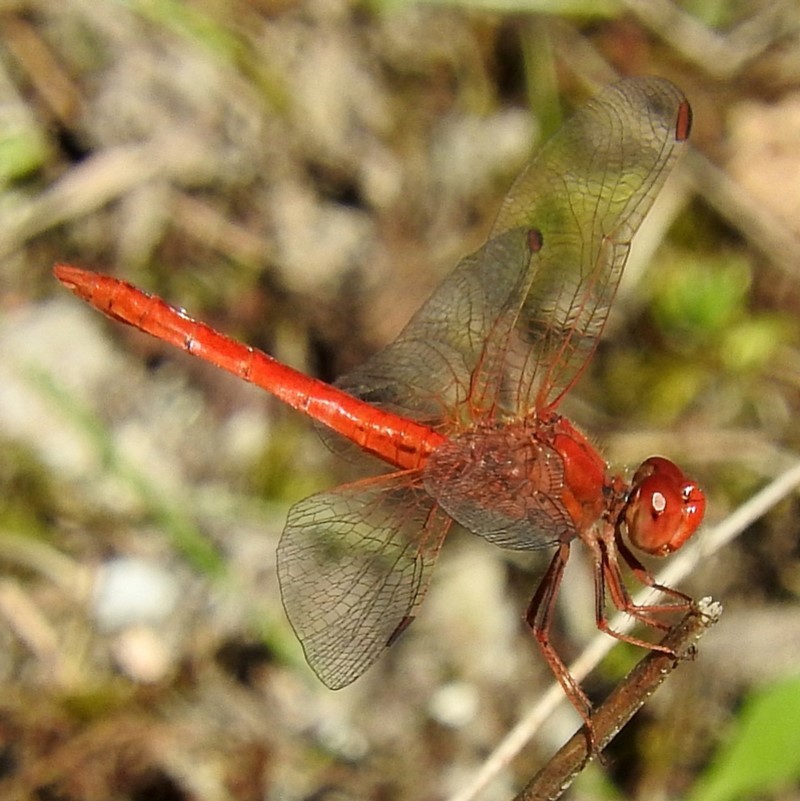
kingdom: Animalia
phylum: Arthropoda
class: Insecta
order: Odonata
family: Libellulidae
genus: Diplacodes
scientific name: Diplacodes haematodes
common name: Scarlet percher
